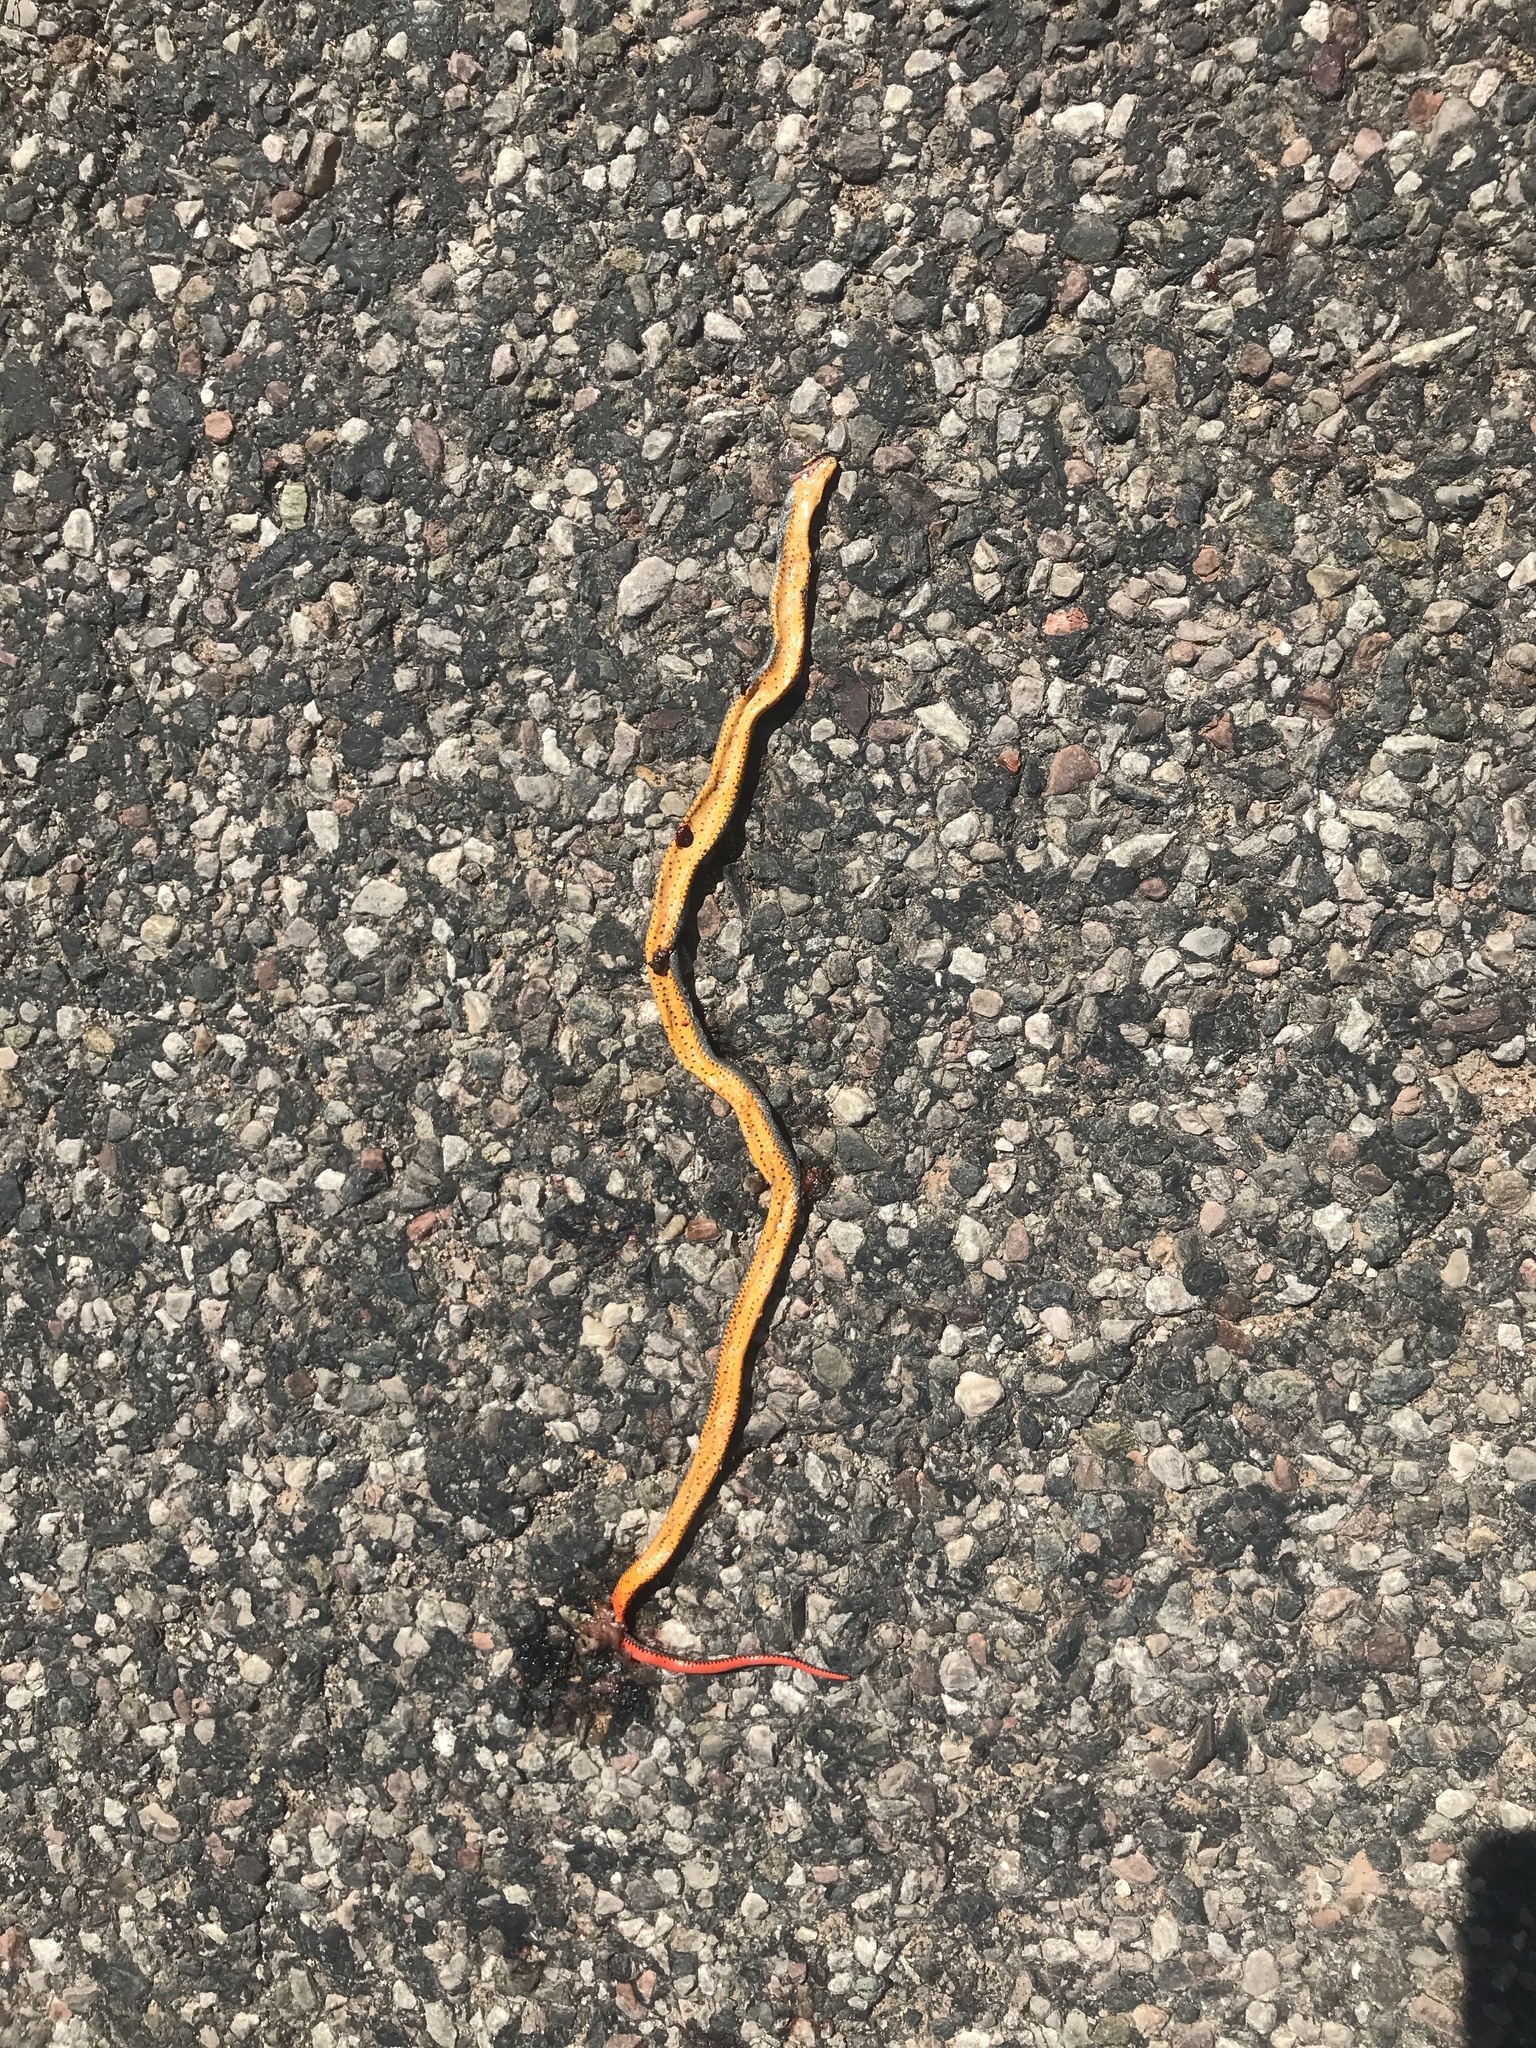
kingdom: Animalia
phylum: Chordata
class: Squamata
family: Colubridae
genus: Diadophis
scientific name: Diadophis punctatus
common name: Ringneck snake
